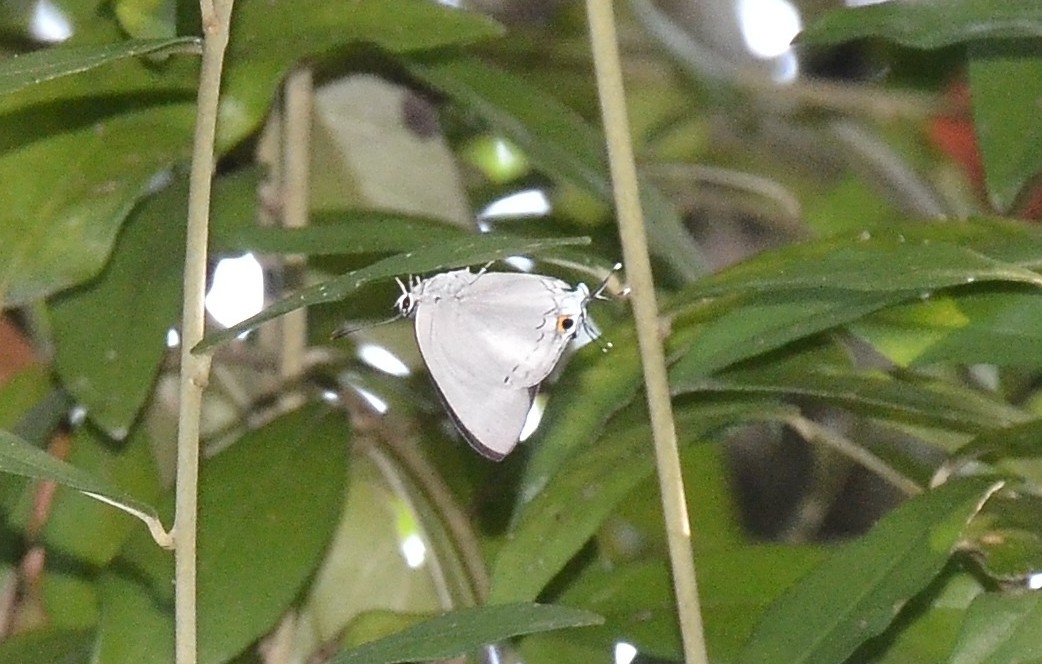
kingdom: Animalia
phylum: Arthropoda
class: Insecta
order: Lepidoptera
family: Lycaenidae
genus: Tajuria
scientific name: Tajuria cippus
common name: Peacock royal
